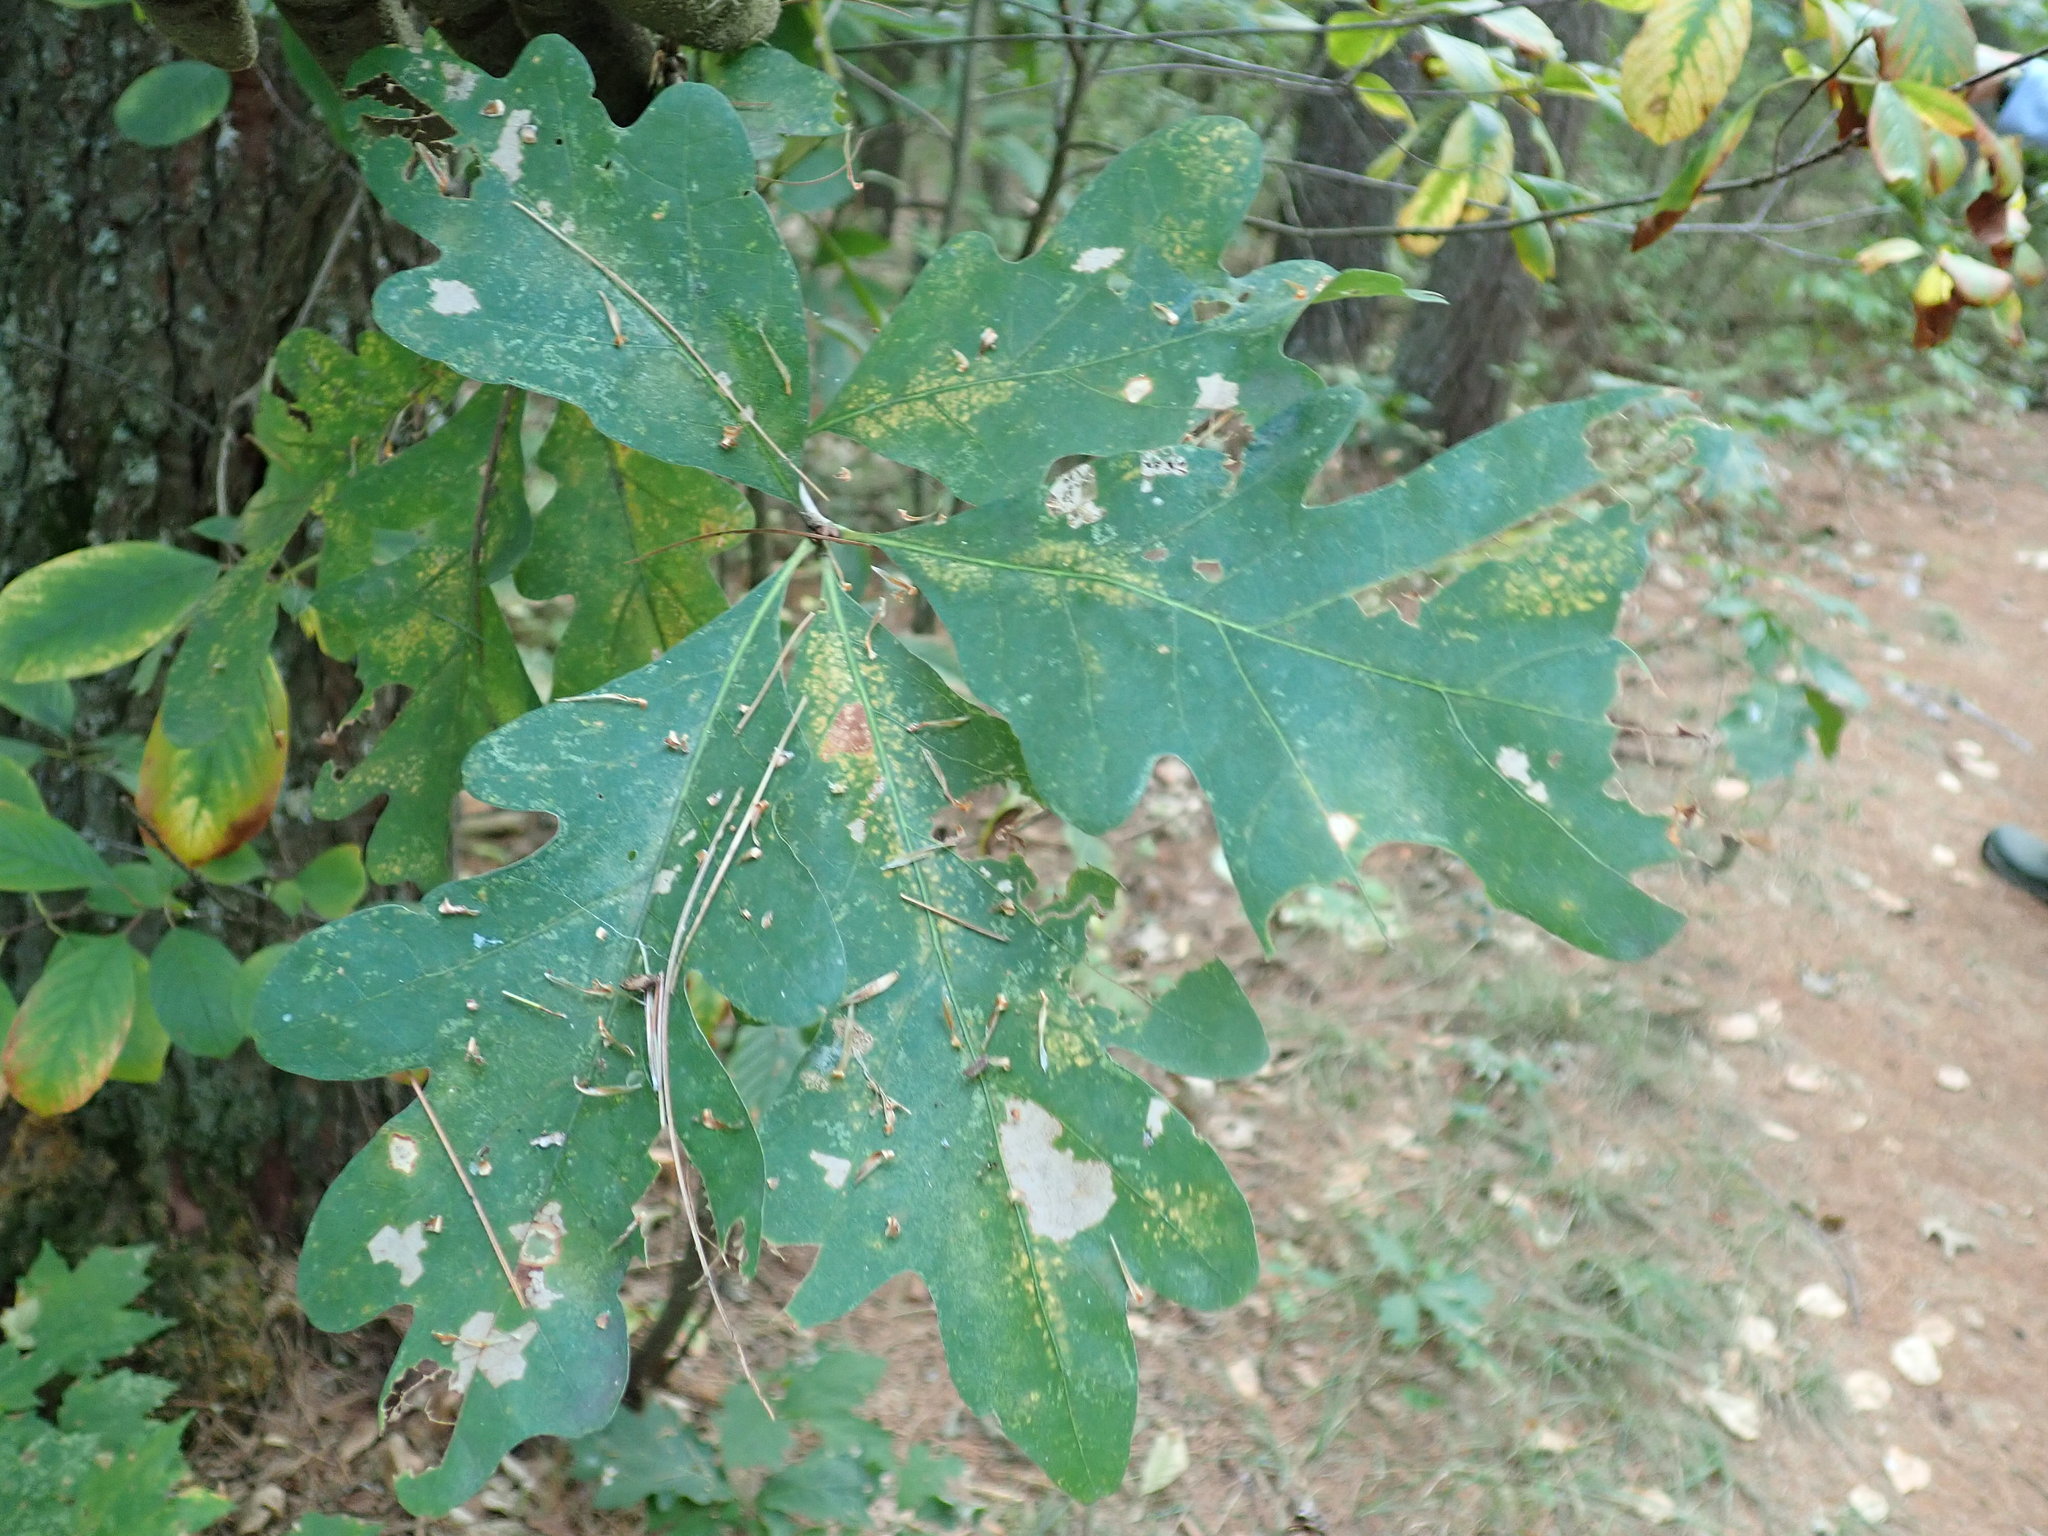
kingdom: Plantae
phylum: Tracheophyta
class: Magnoliopsida
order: Fagales
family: Fagaceae
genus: Quercus
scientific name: Quercus alba
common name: White oak
